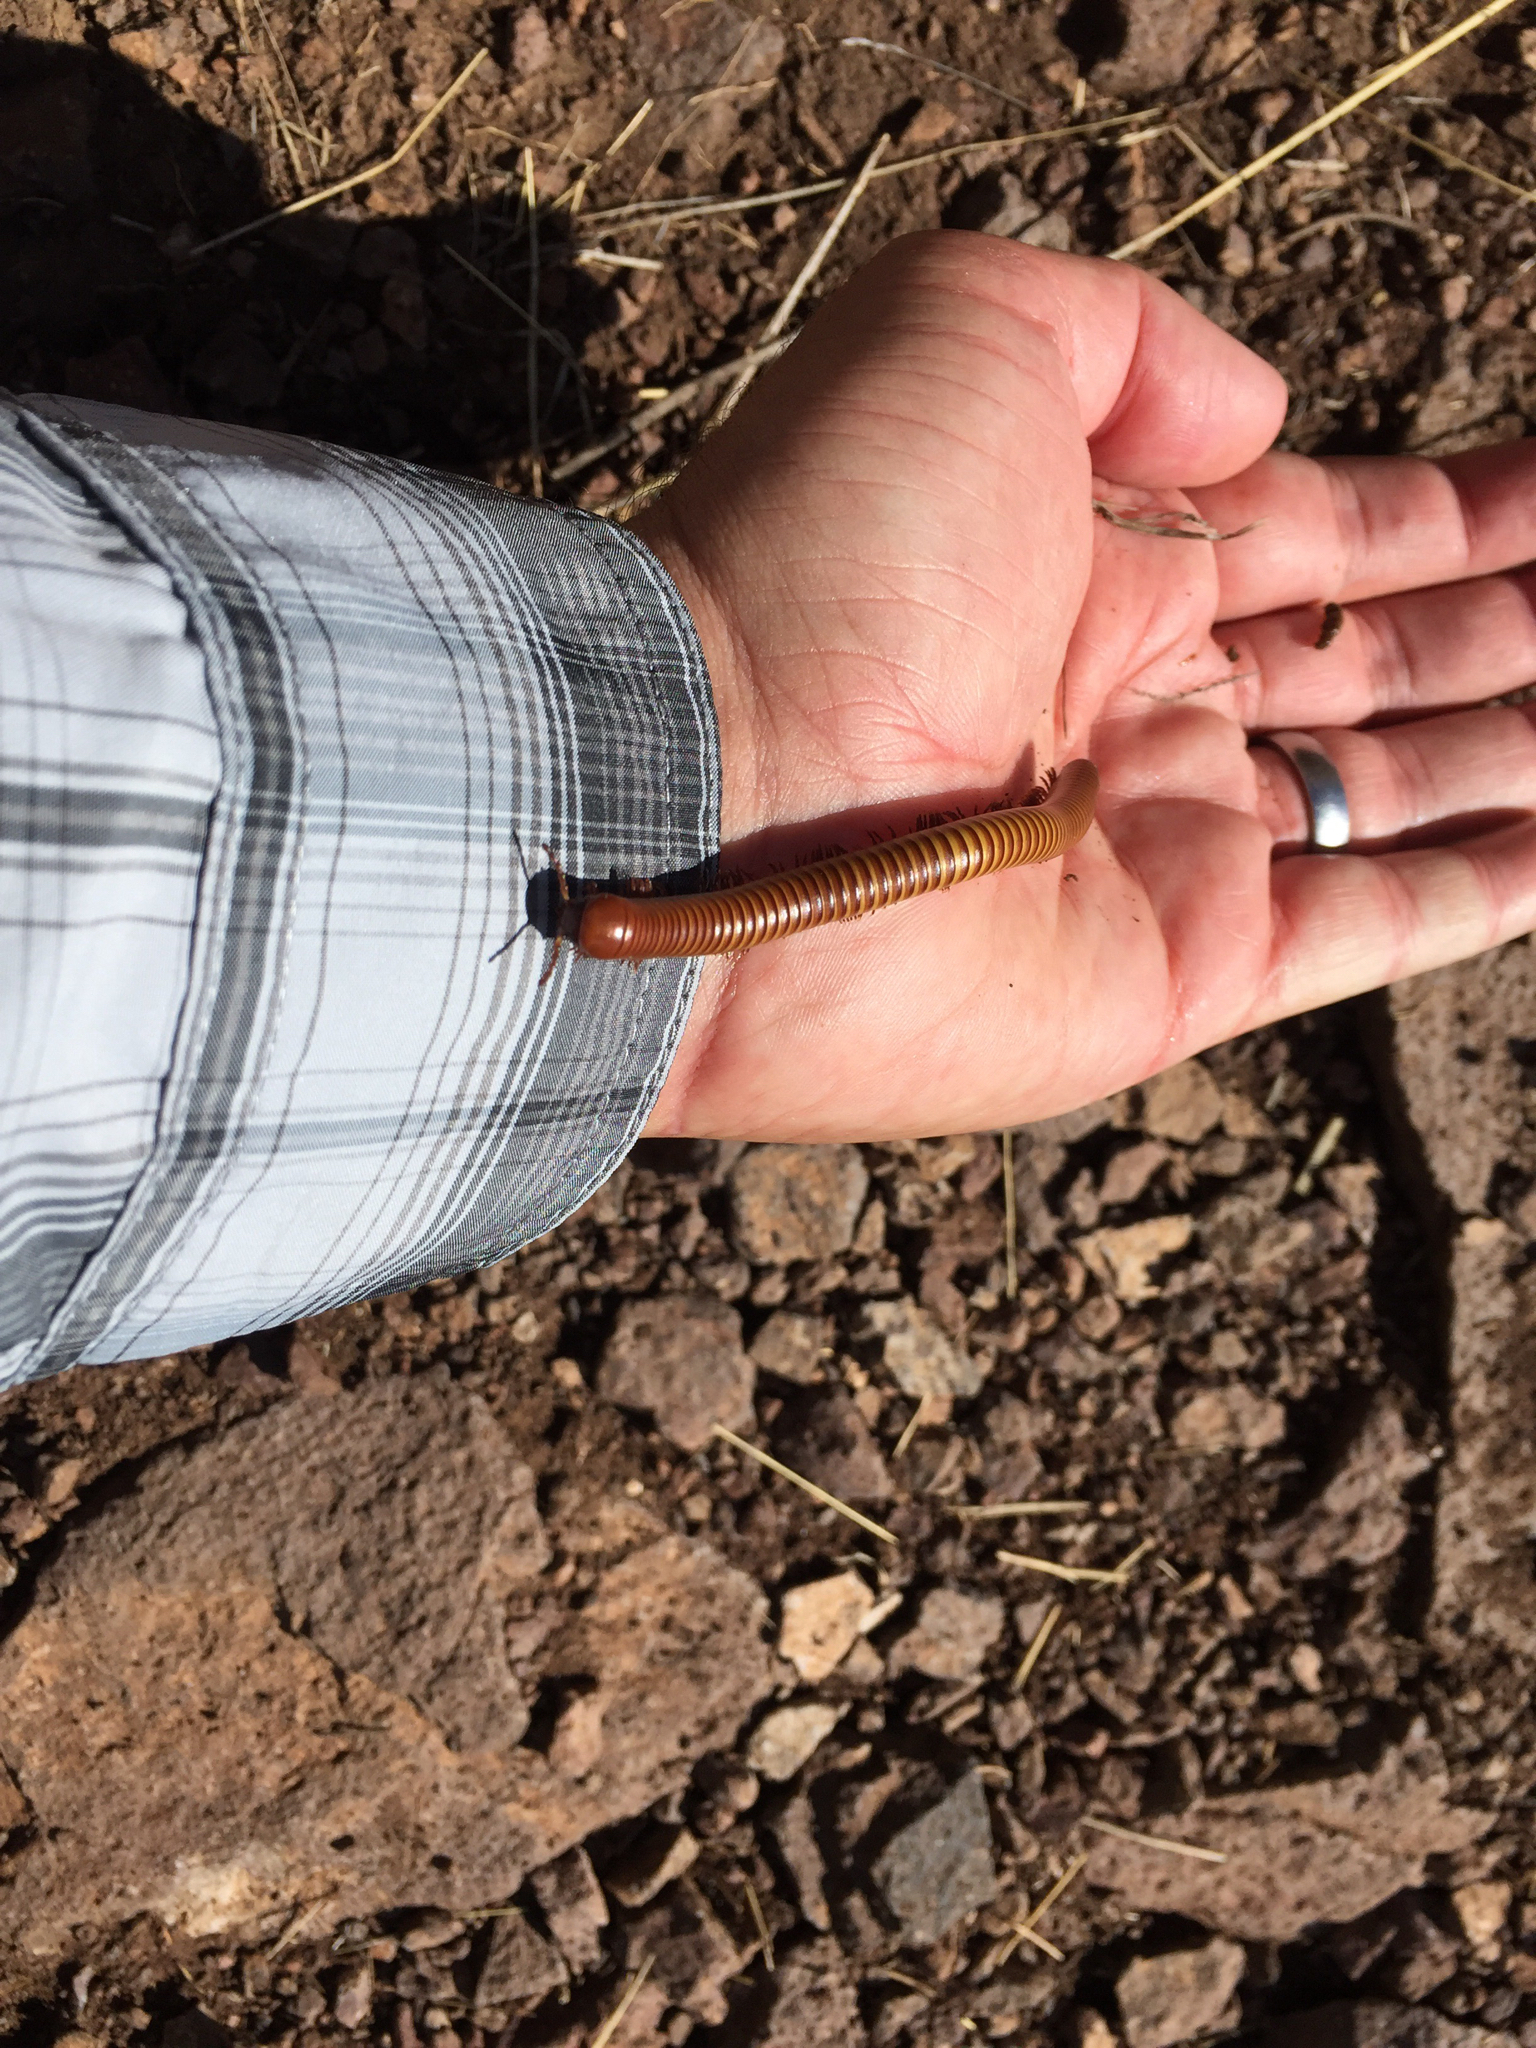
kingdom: Animalia
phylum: Arthropoda
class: Diplopoda
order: Spirostreptida
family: Spirostreptidae
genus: Orthoporus
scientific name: Orthoporus ornatus
